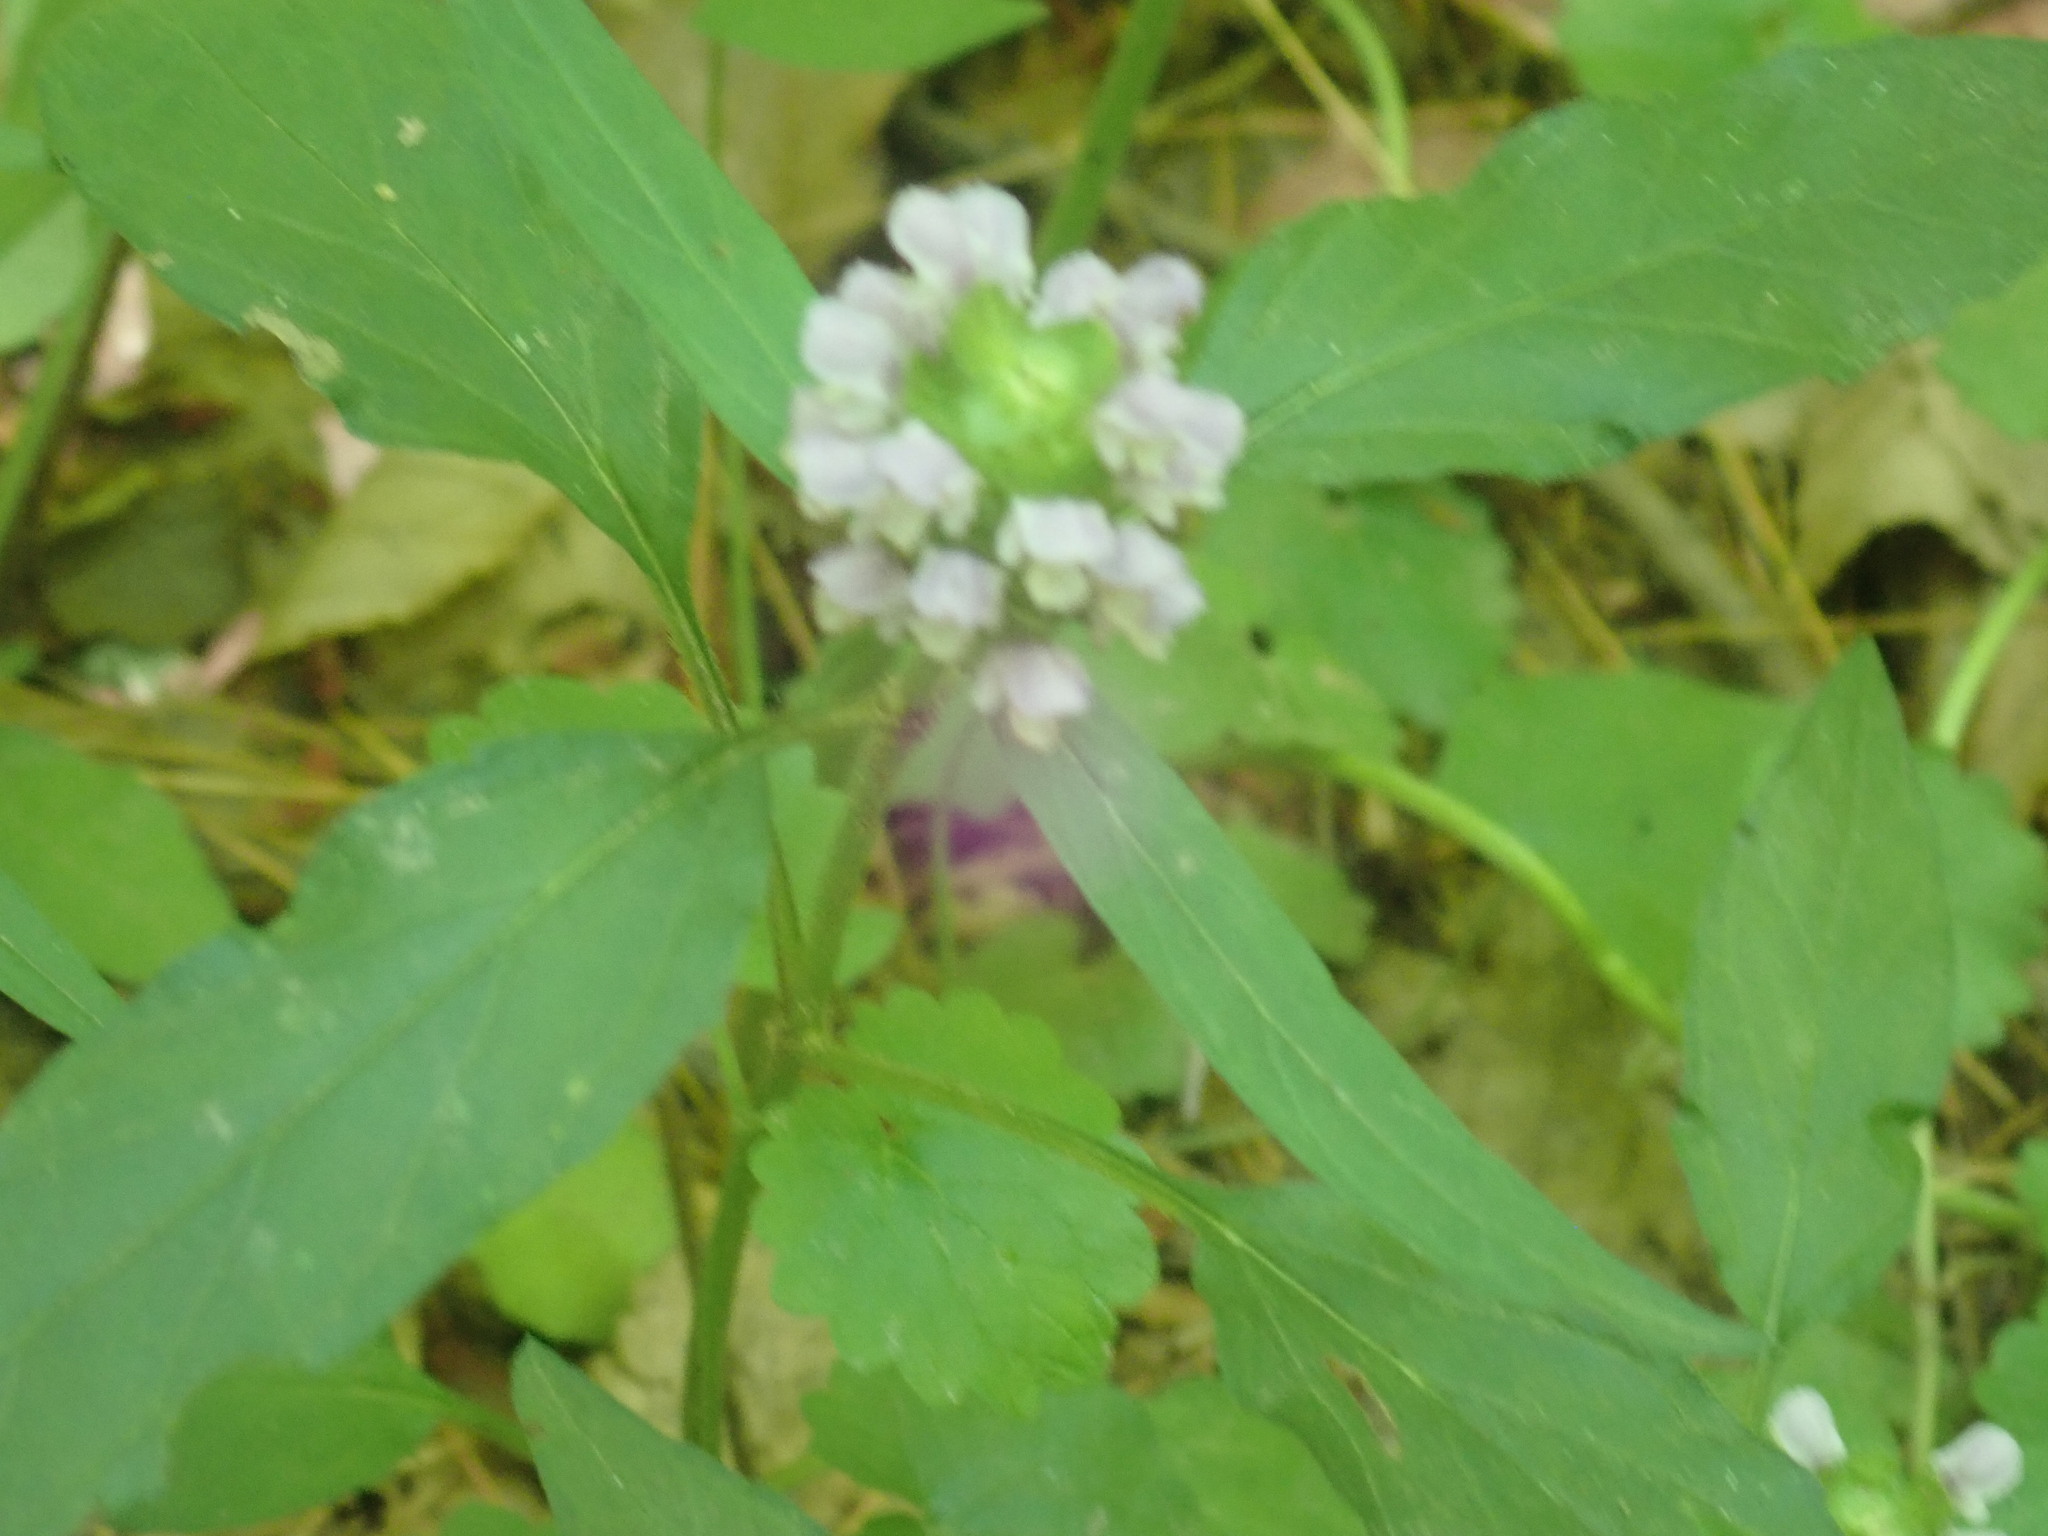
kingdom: Plantae
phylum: Tracheophyta
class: Magnoliopsida
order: Lamiales
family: Lamiaceae
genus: Prunella
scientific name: Prunella vulgaris
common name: Heal-all
